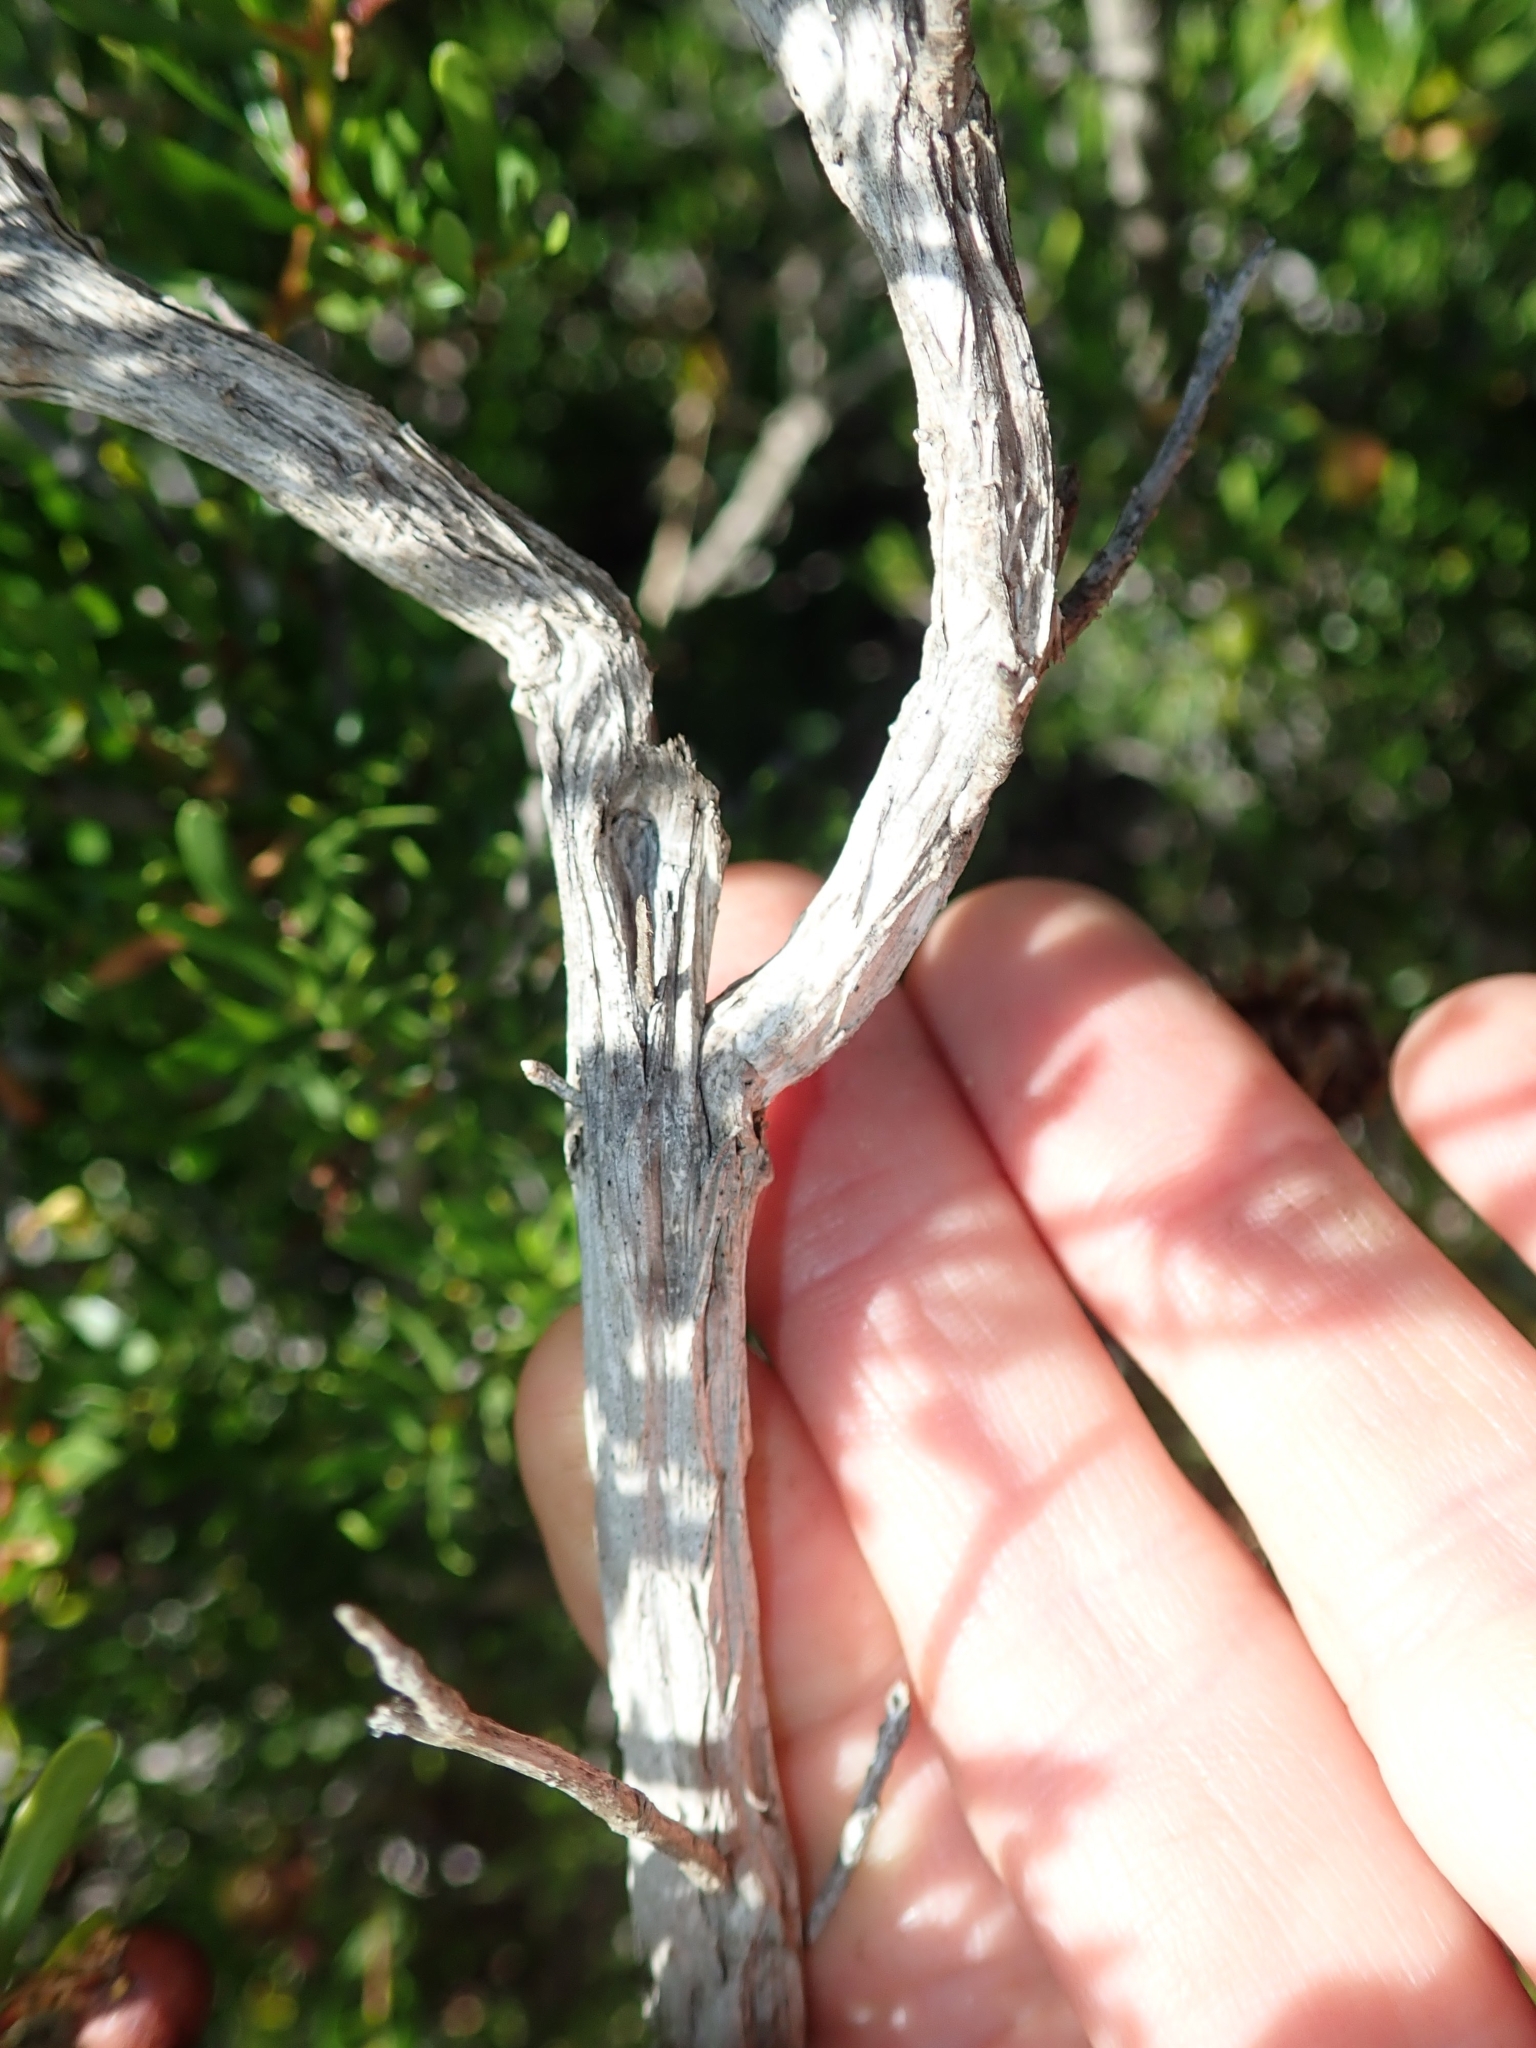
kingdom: Plantae
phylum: Tracheophyta
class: Magnoliopsida
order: Sapindales
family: Rutaceae
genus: Cneoridium
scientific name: Cneoridium dumosum
